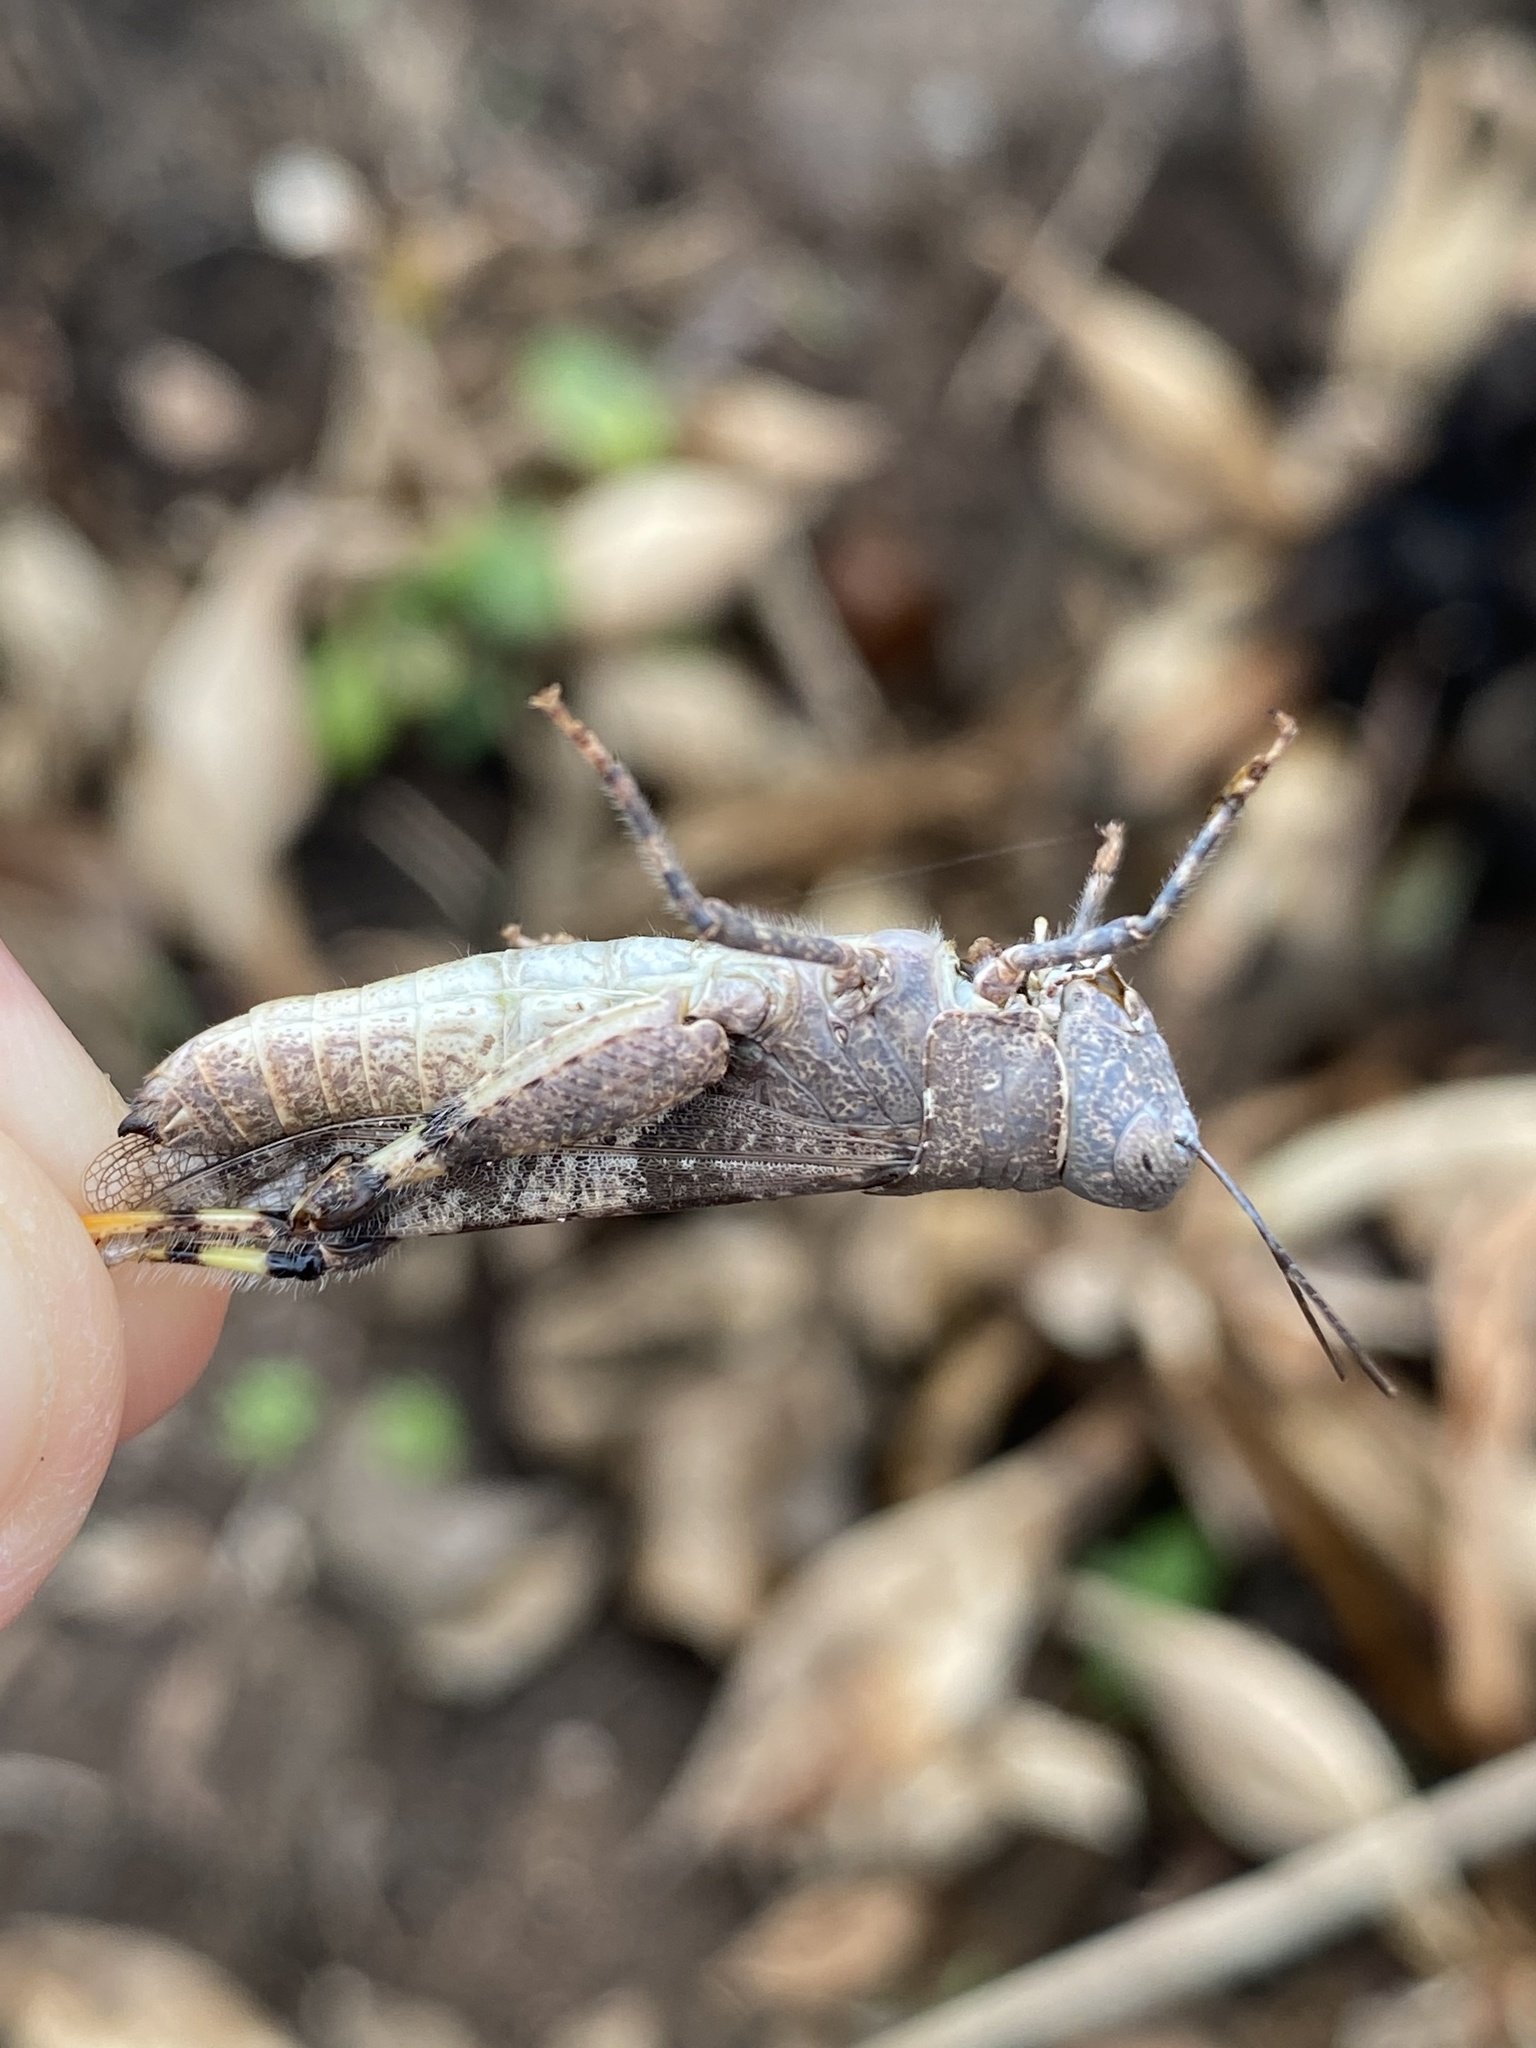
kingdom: Animalia
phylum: Arthropoda
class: Insecta
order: Orthoptera
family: Acrididae
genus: Heliastus
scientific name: Heliastus benjamini
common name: Arroyo grasshopper
